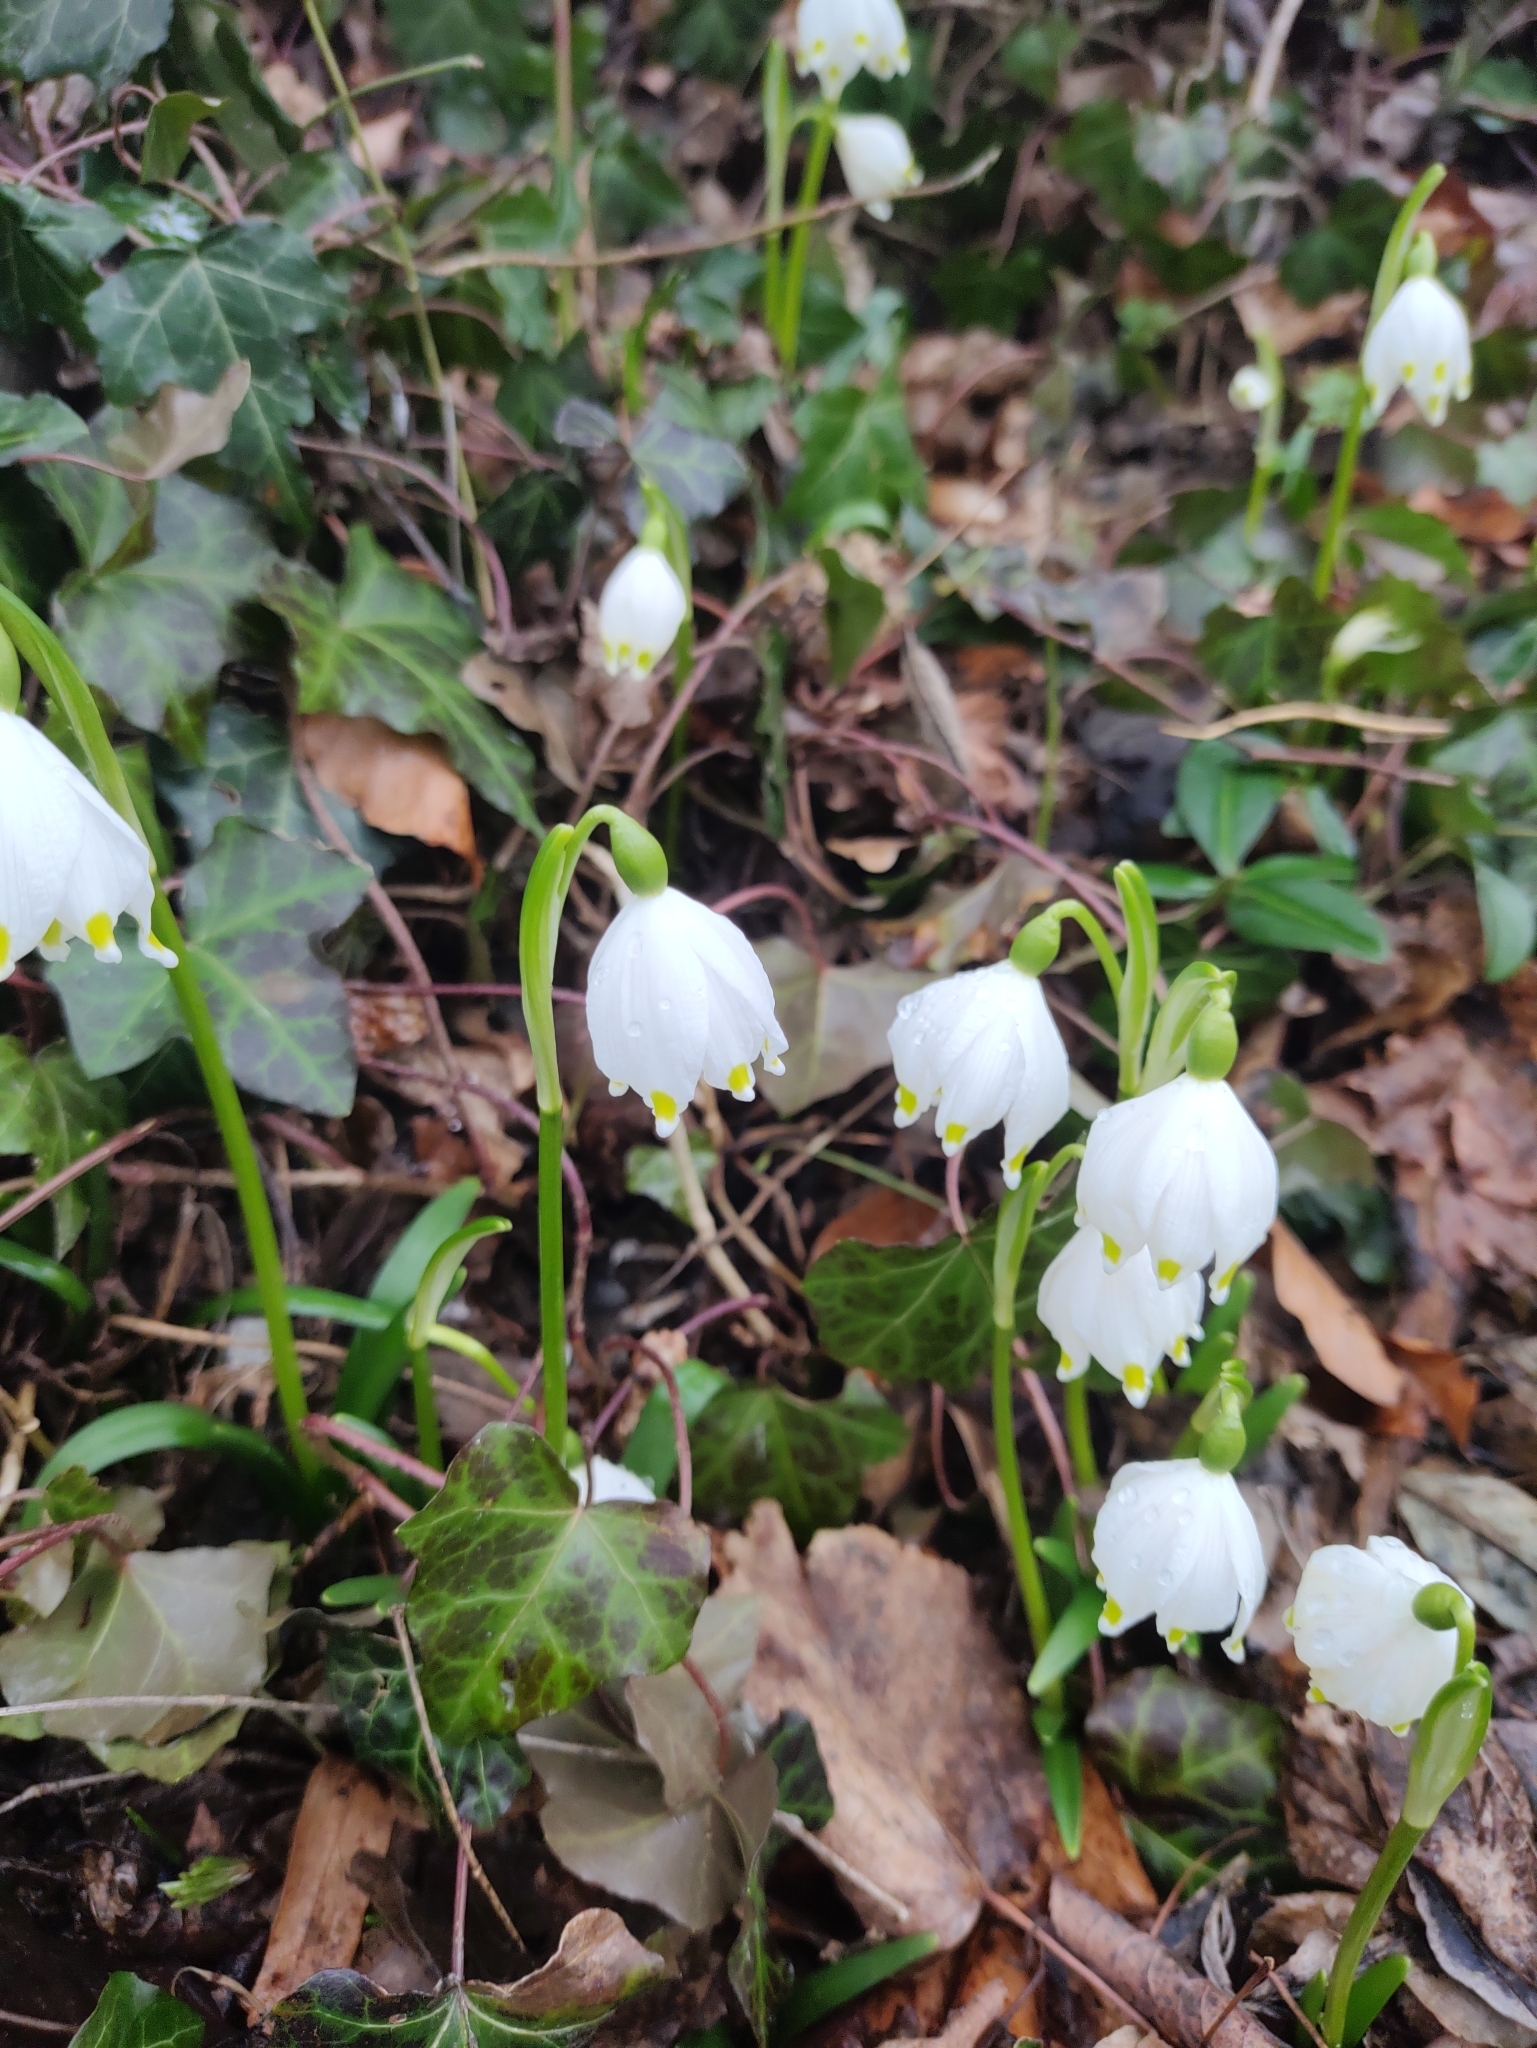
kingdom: Plantae
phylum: Tracheophyta
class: Liliopsida
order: Asparagales
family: Amaryllidaceae
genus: Leucojum
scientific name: Leucojum vernum
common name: Spring snowflake
